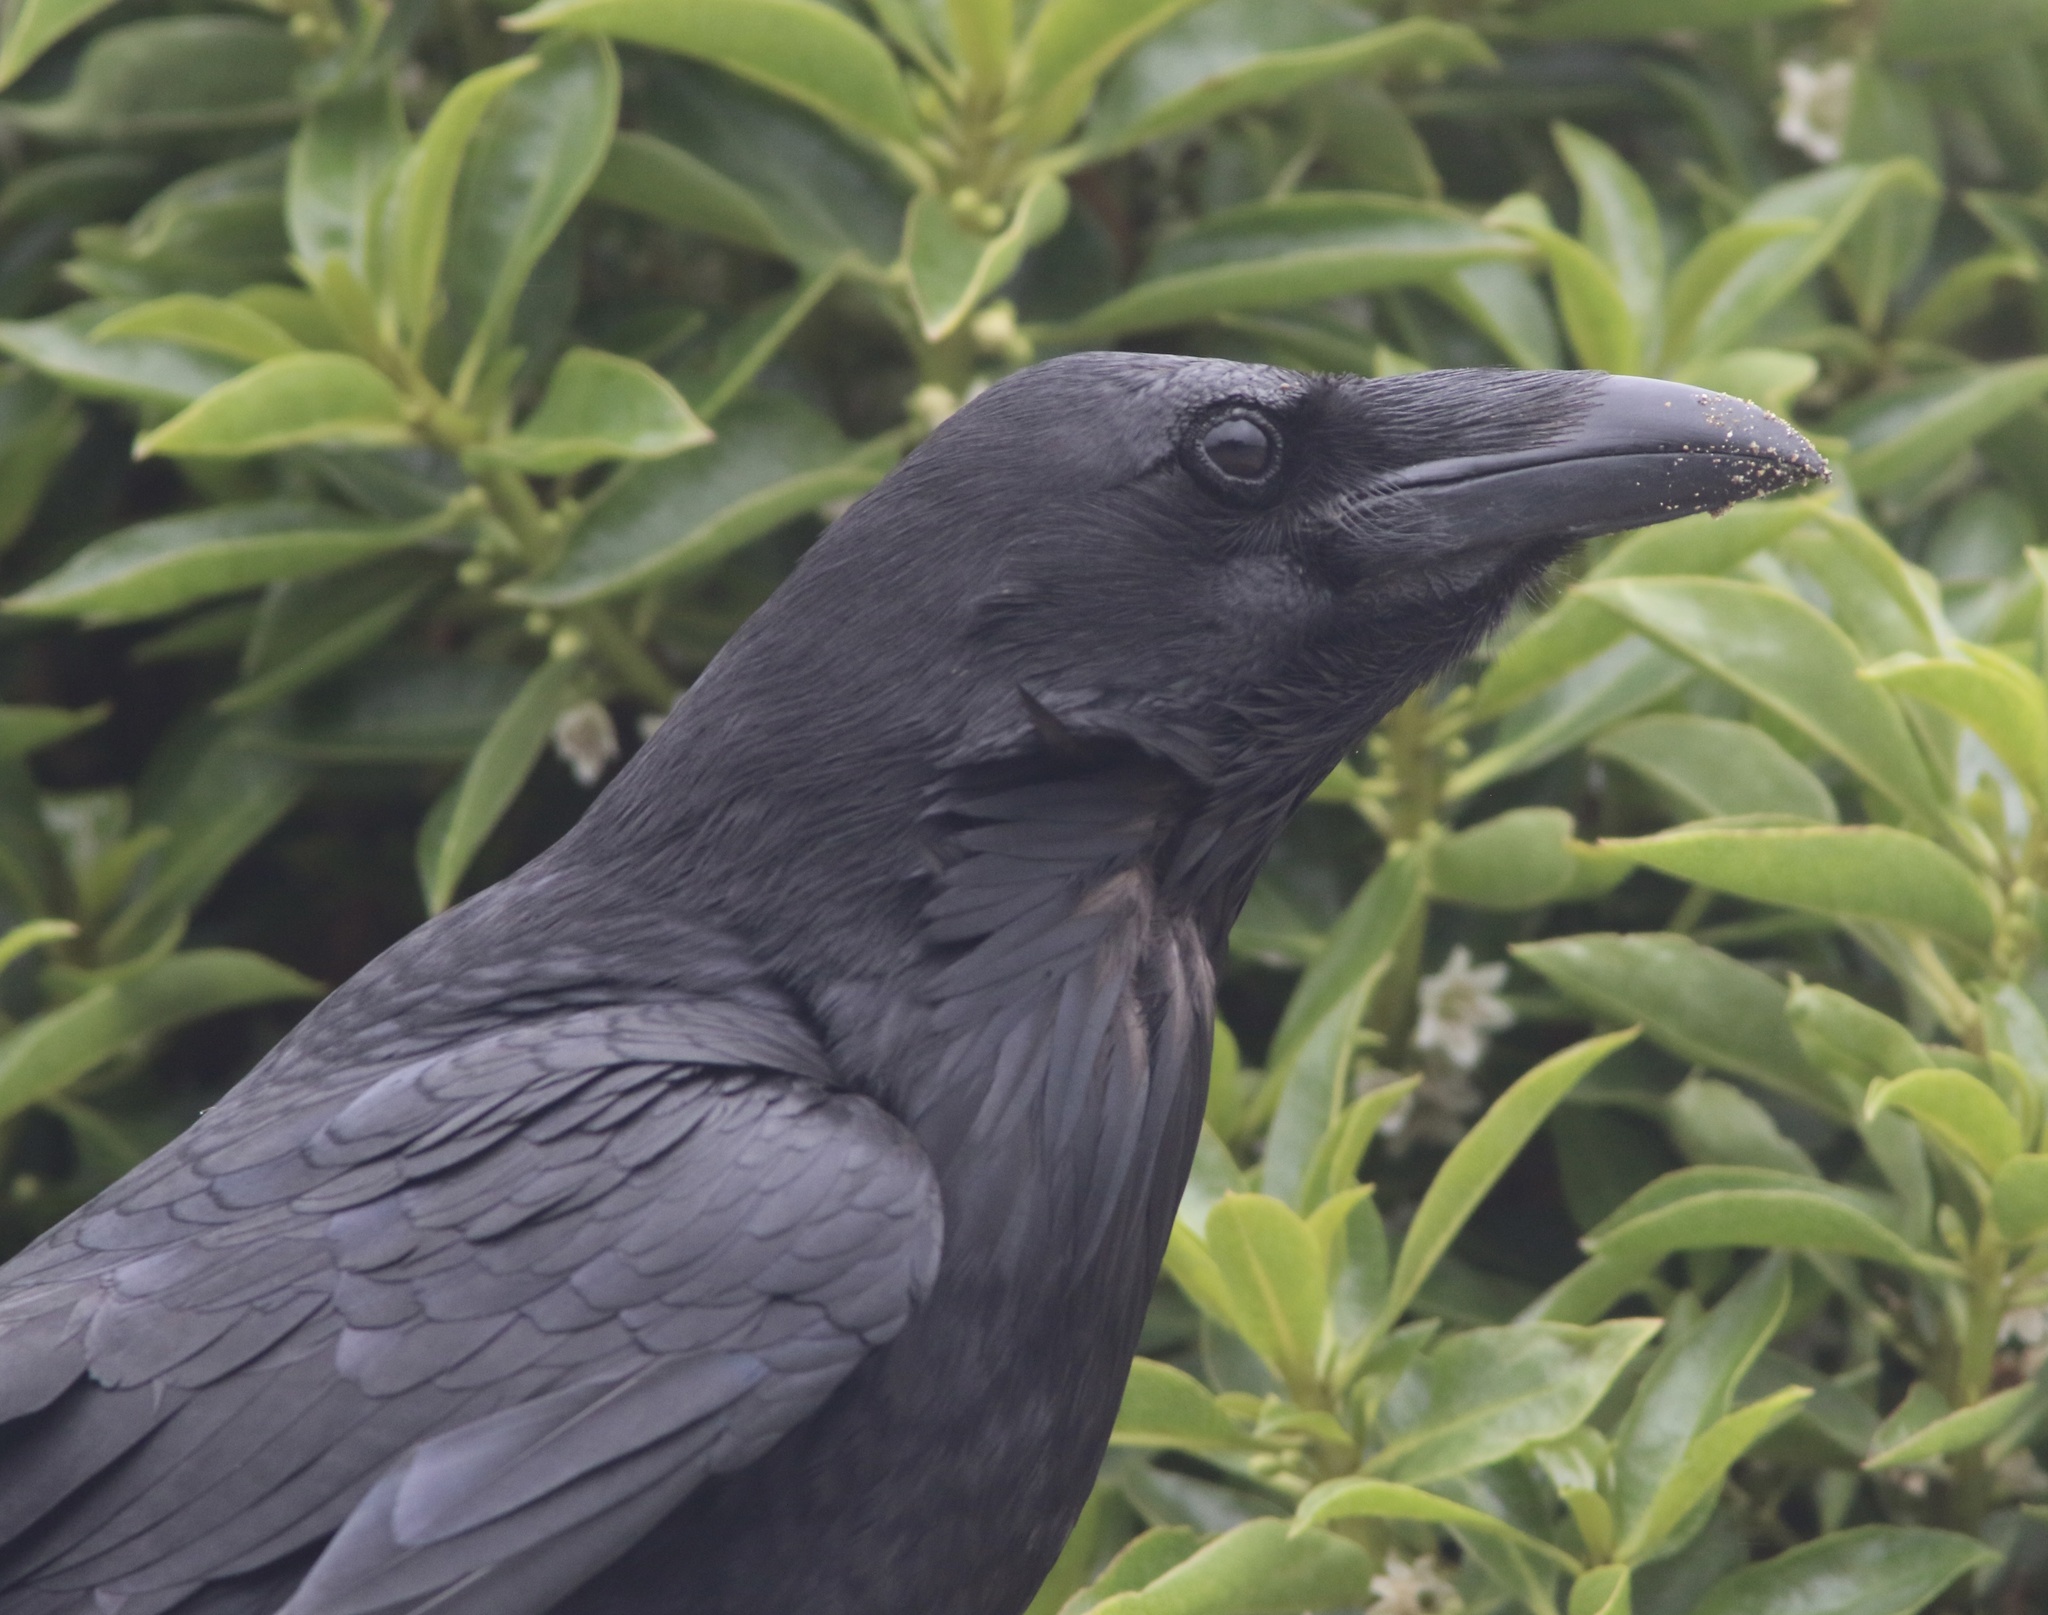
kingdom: Animalia
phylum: Chordata
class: Aves
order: Passeriformes
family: Corvidae
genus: Corvus
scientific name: Corvus corax
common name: Common raven
